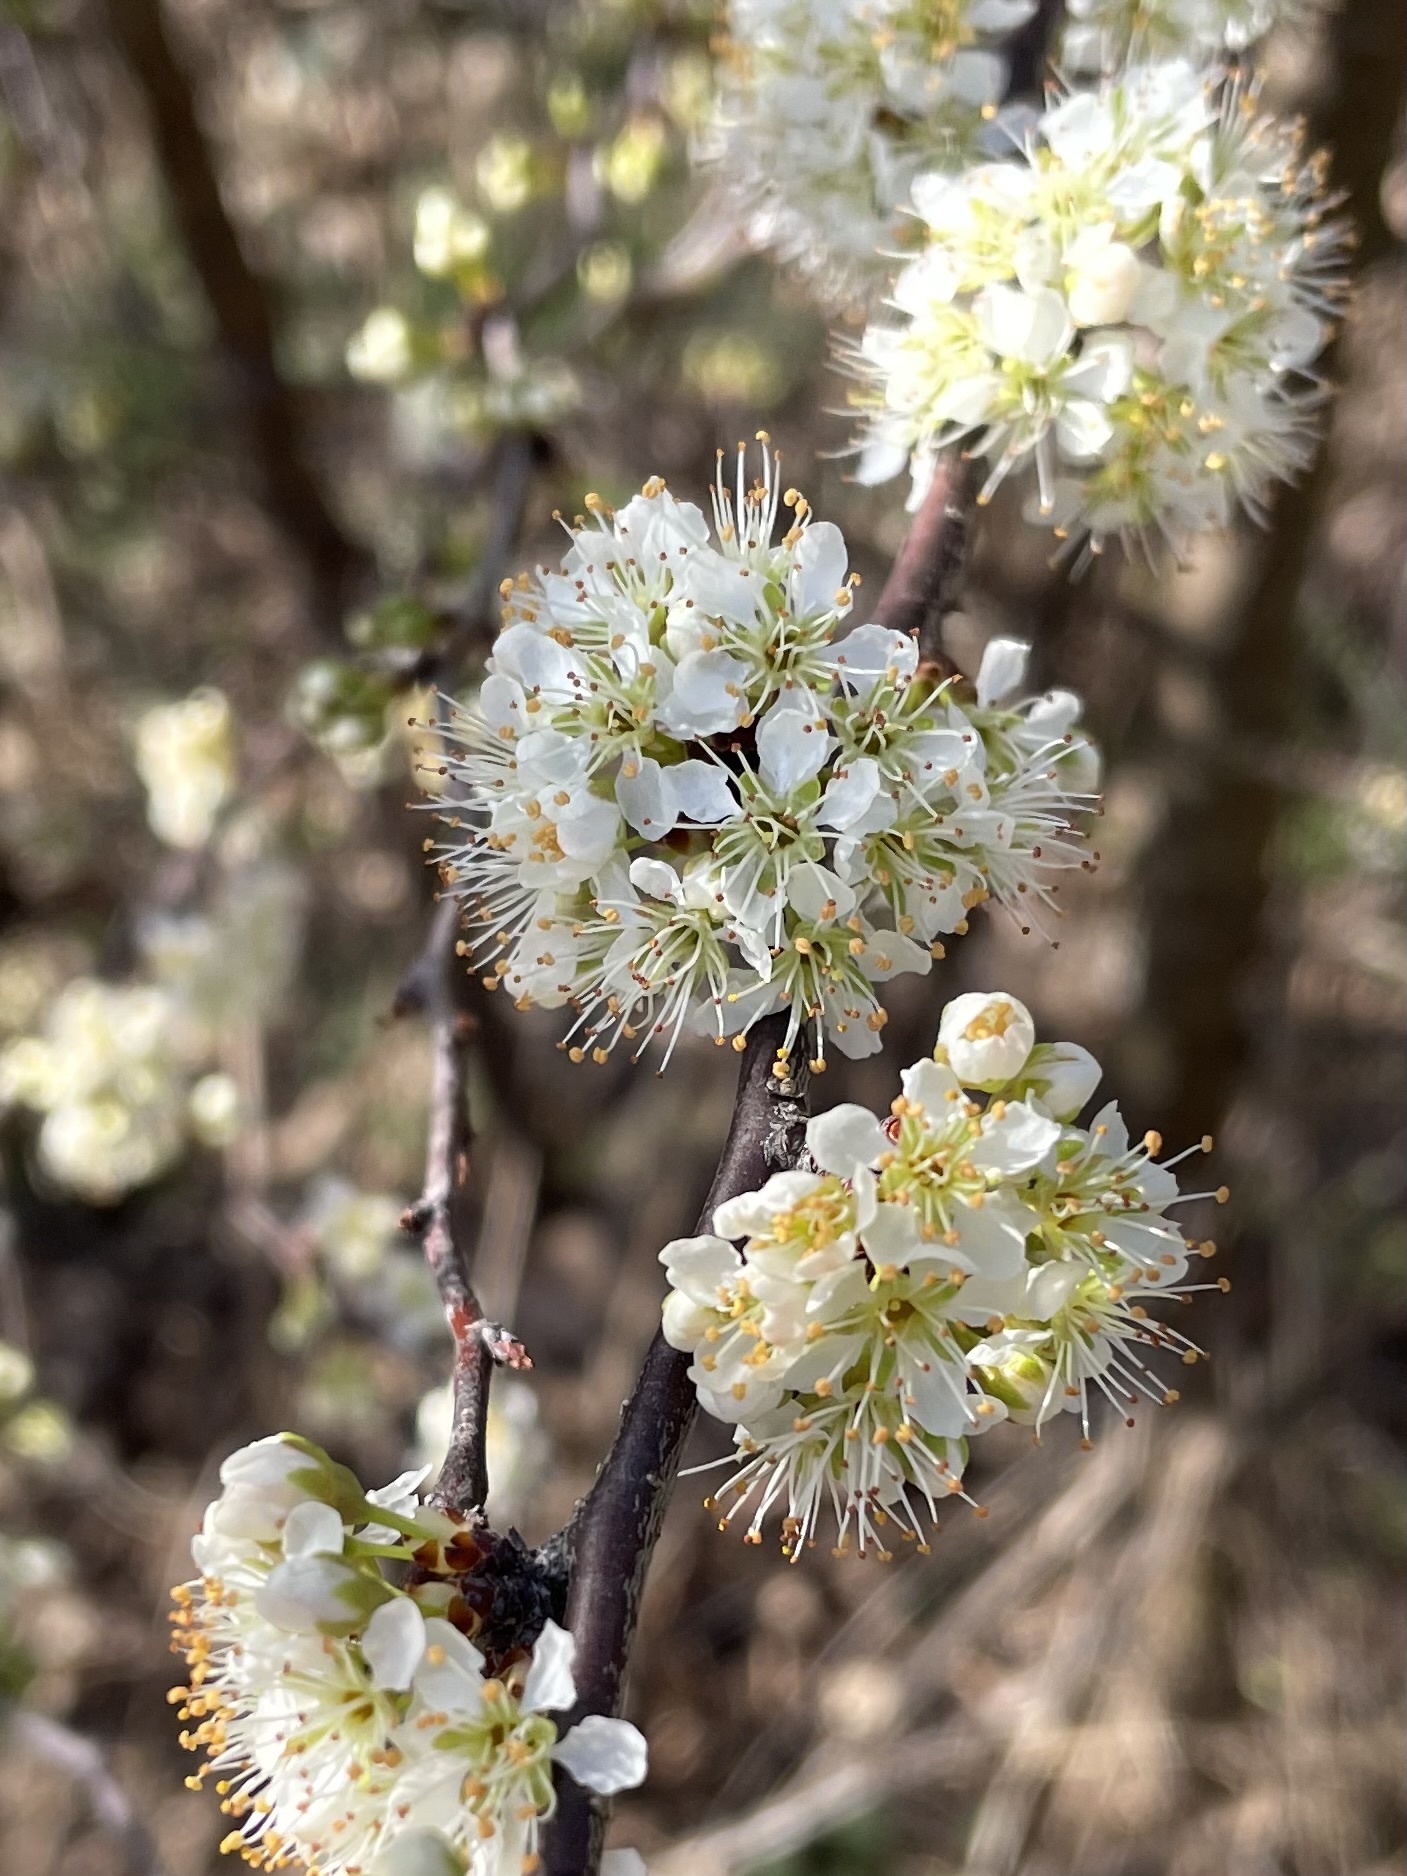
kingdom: Plantae
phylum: Tracheophyta
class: Magnoliopsida
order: Rosales
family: Rosaceae
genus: Prunus
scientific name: Prunus angustifolia
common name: Cherokee plum
